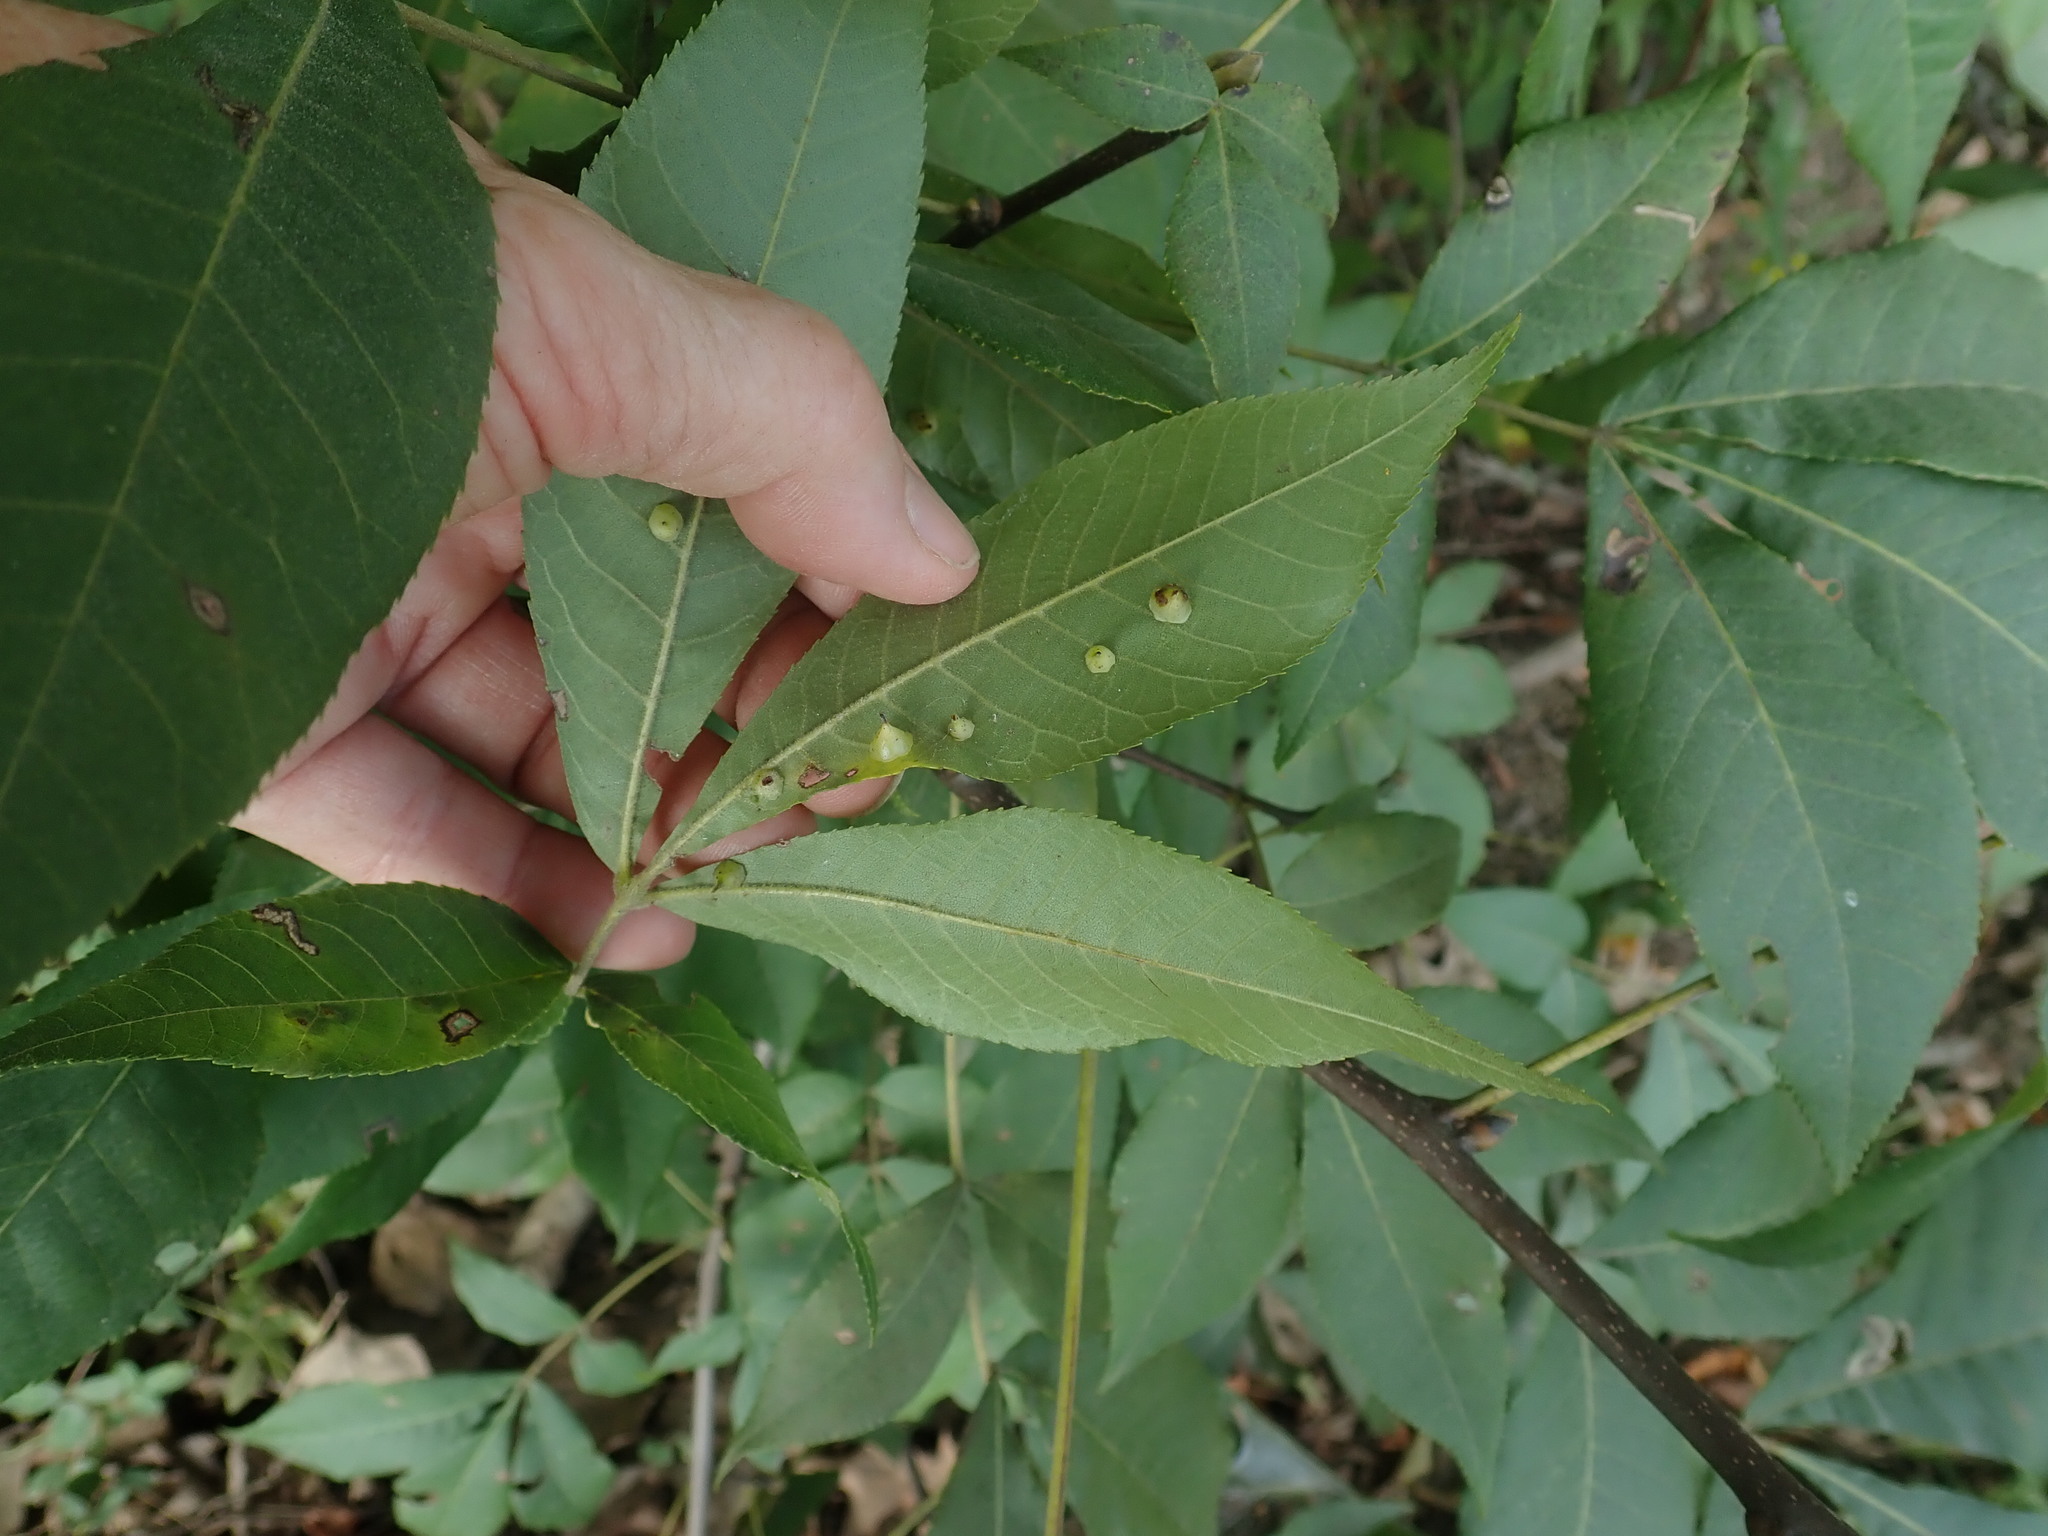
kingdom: Animalia
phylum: Arthropoda
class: Insecta
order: Diptera
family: Cecidomyiidae
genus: Caryomyia
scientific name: Caryomyia sanguinolenta
